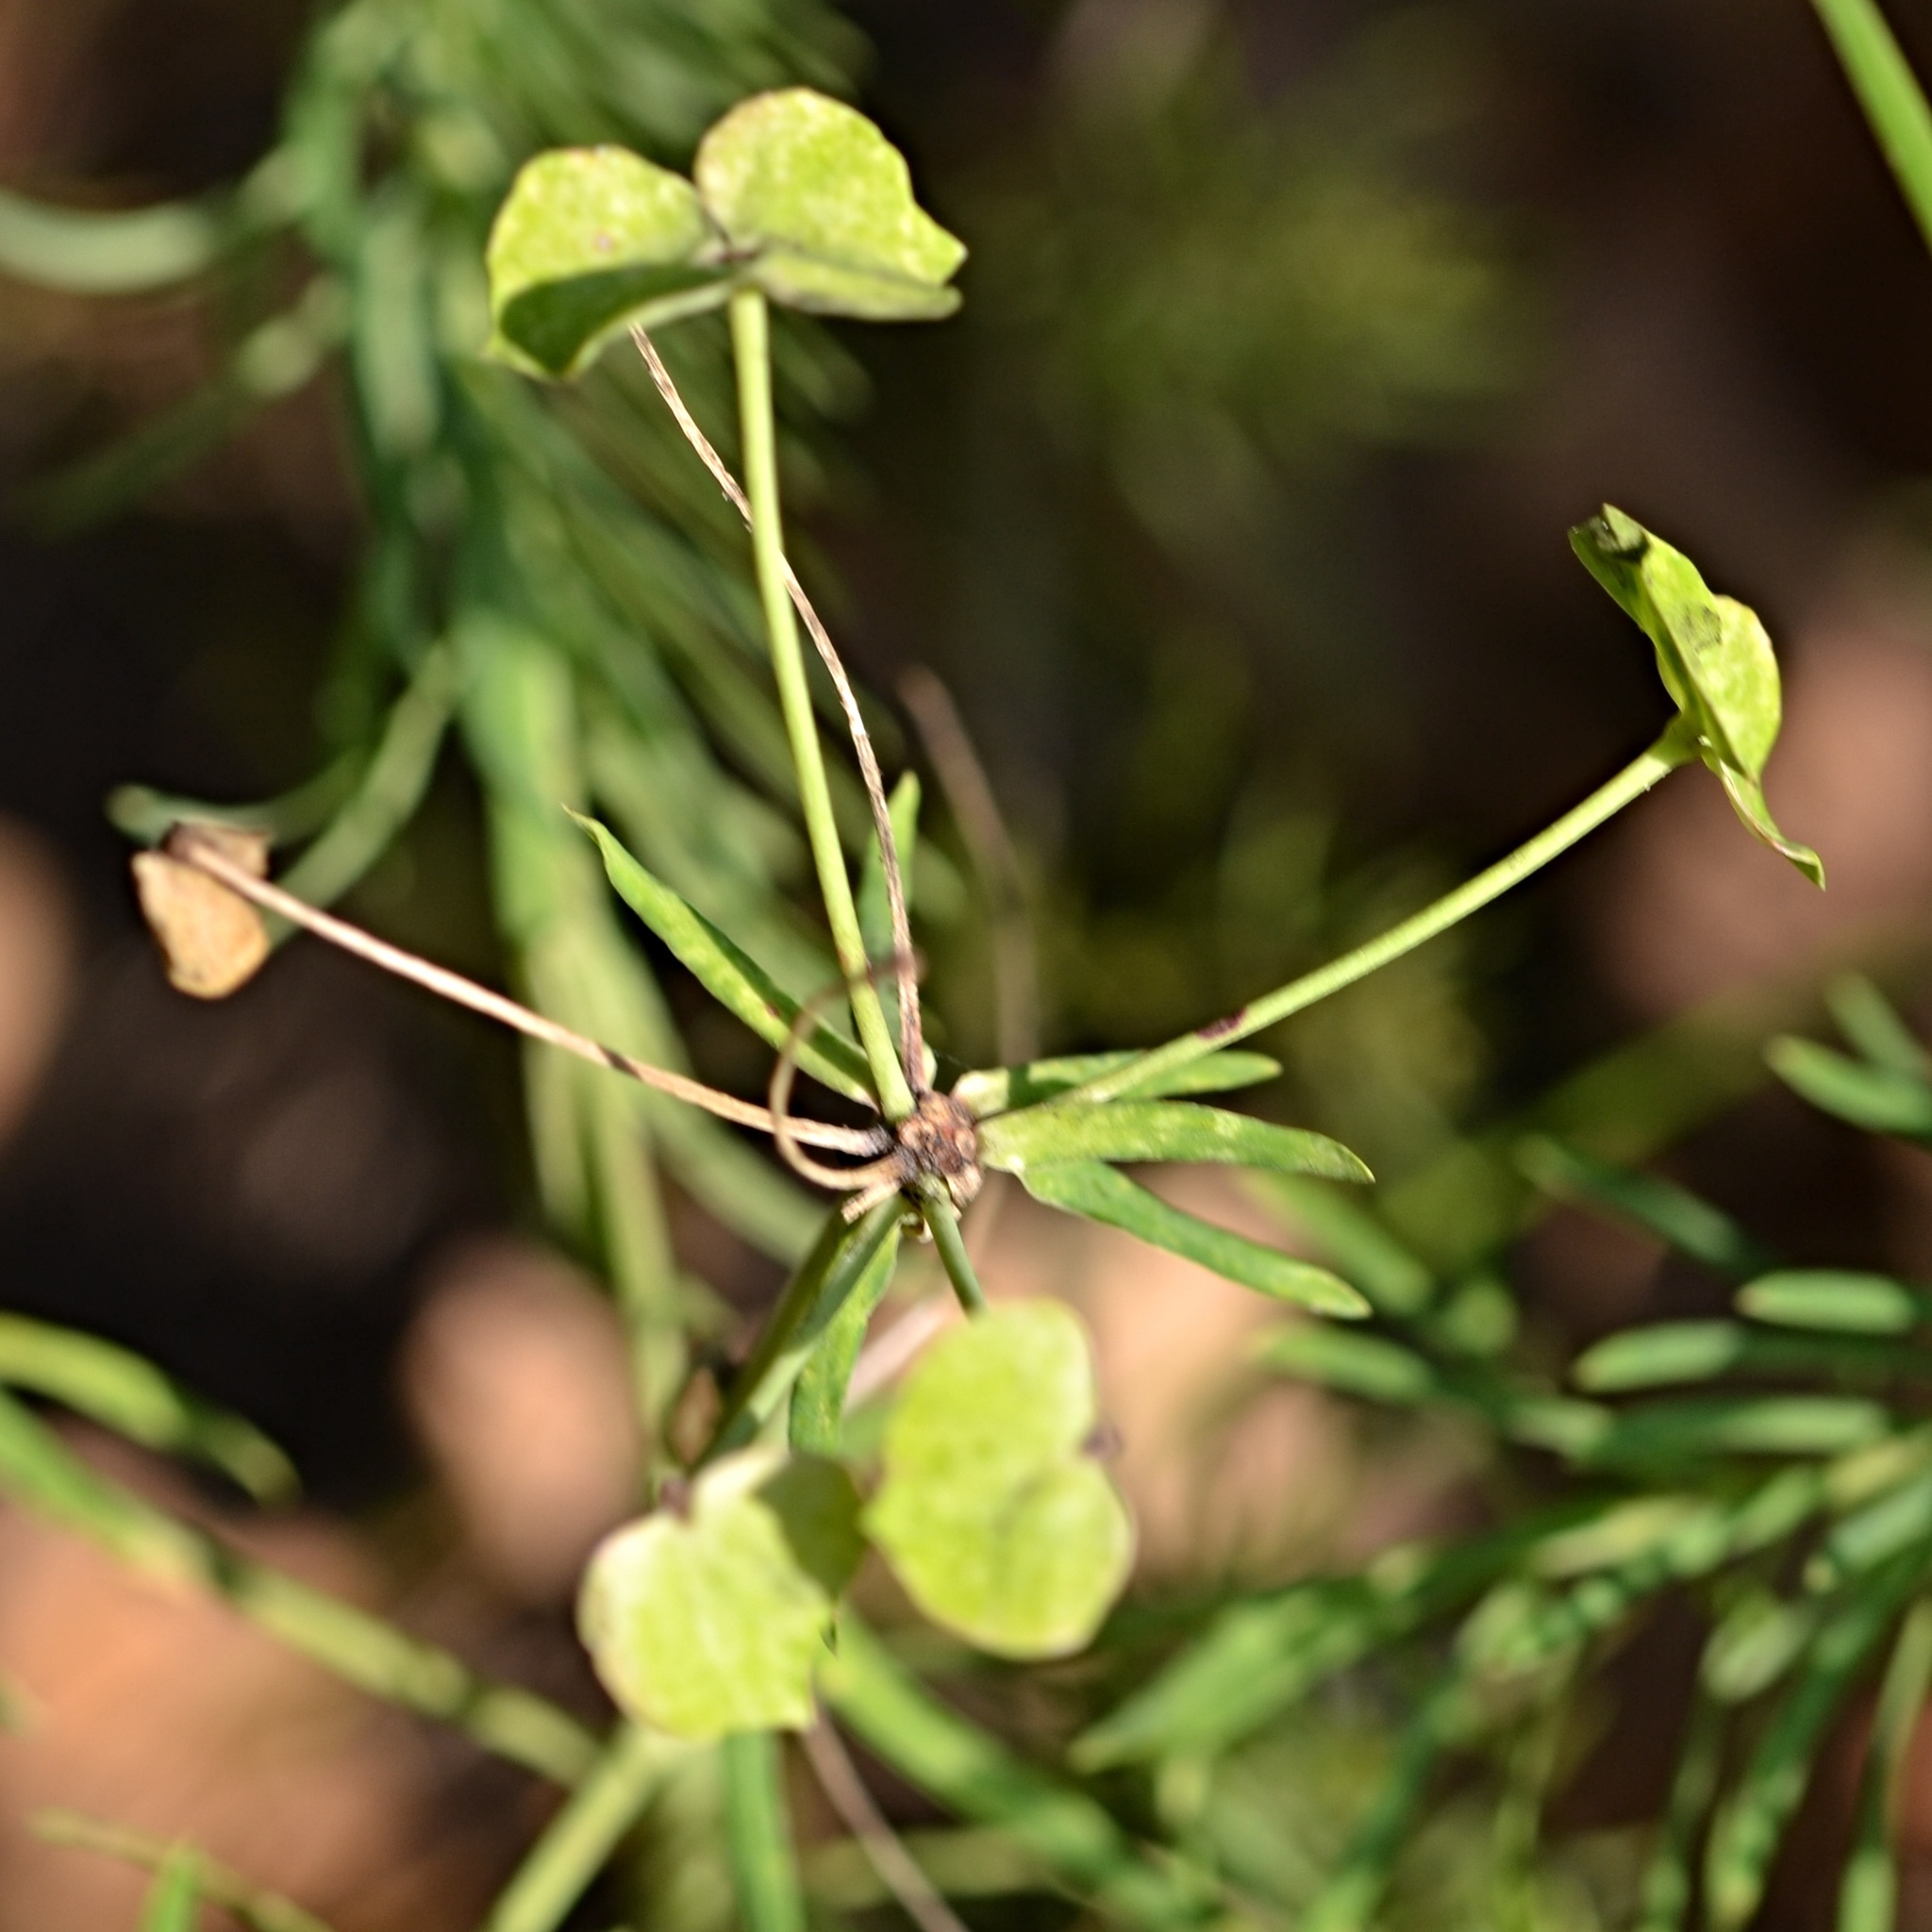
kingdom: Plantae
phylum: Tracheophyta
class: Magnoliopsida
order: Malpighiales
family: Euphorbiaceae
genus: Euphorbia
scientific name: Euphorbia cyparissias
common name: Cypress spurge
